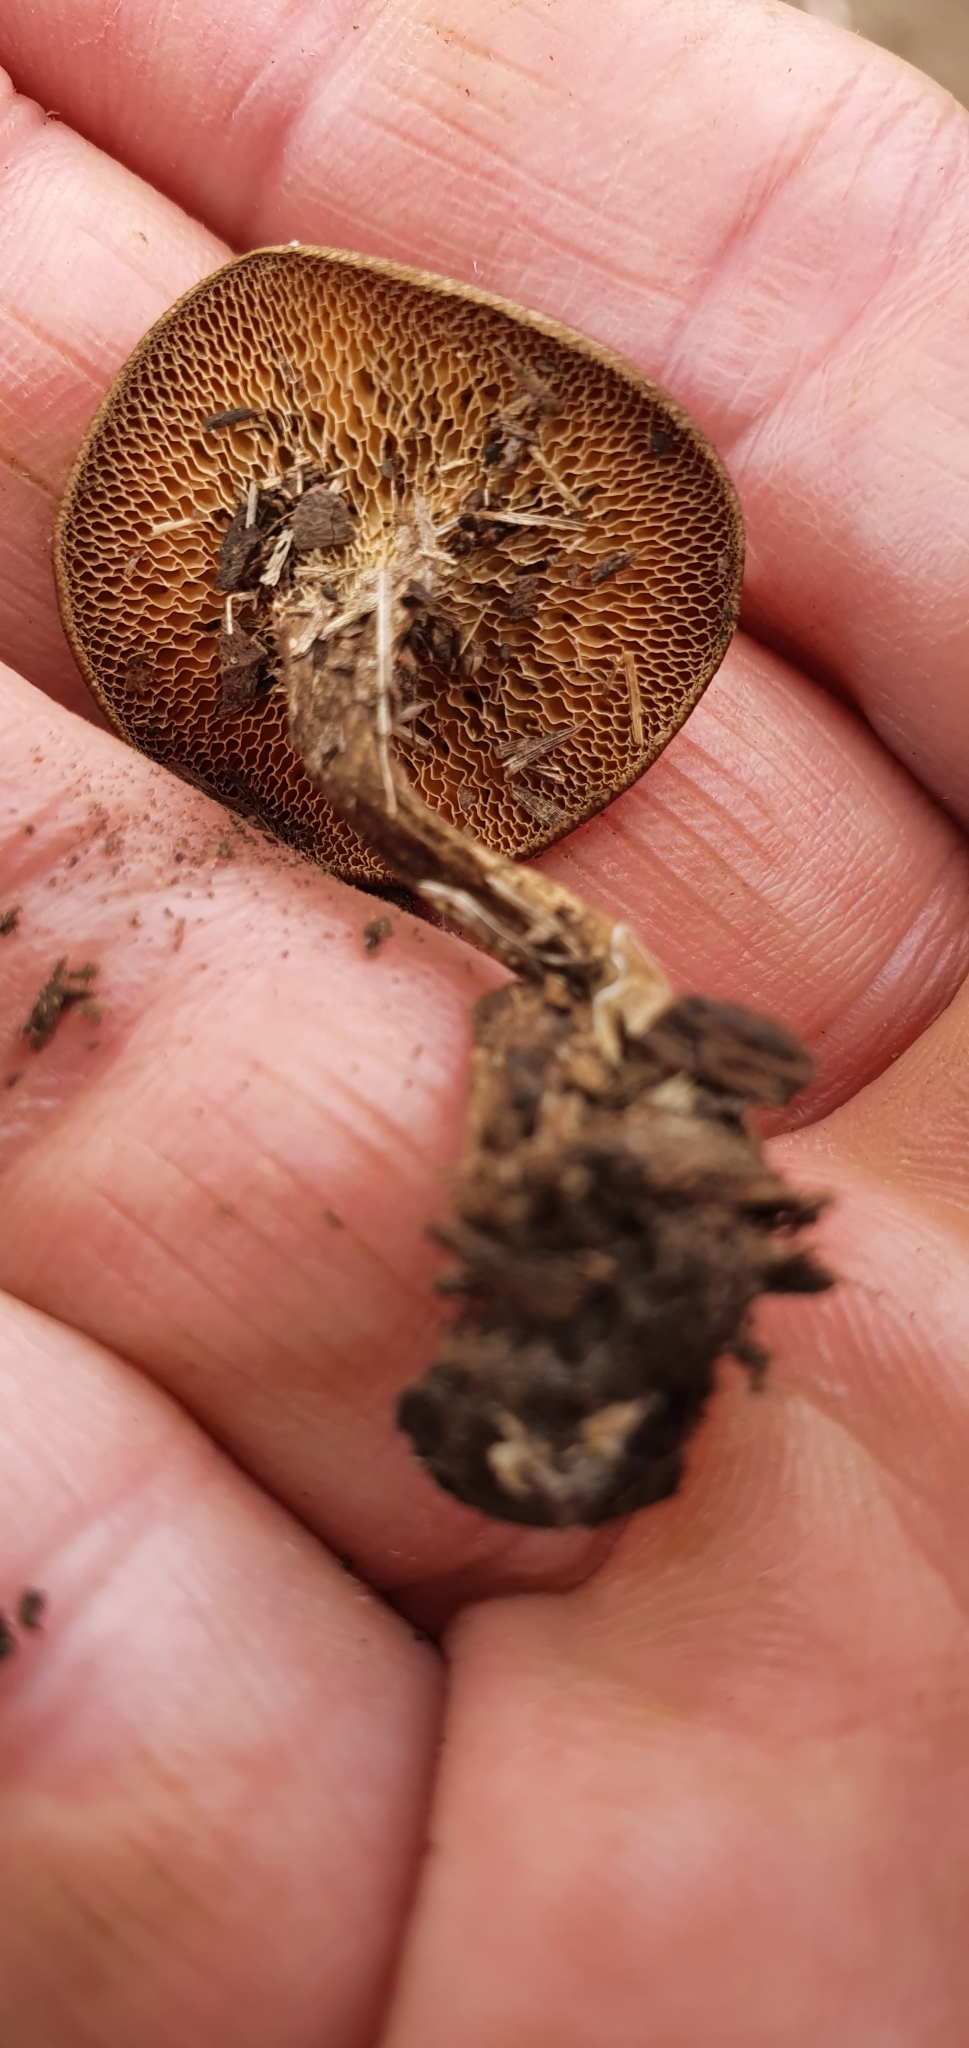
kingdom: Fungi
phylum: Basidiomycota
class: Agaricomycetes
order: Polyporales
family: Polyporaceae
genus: Lentinus
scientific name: Lentinus arcularius
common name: Spring polypore
